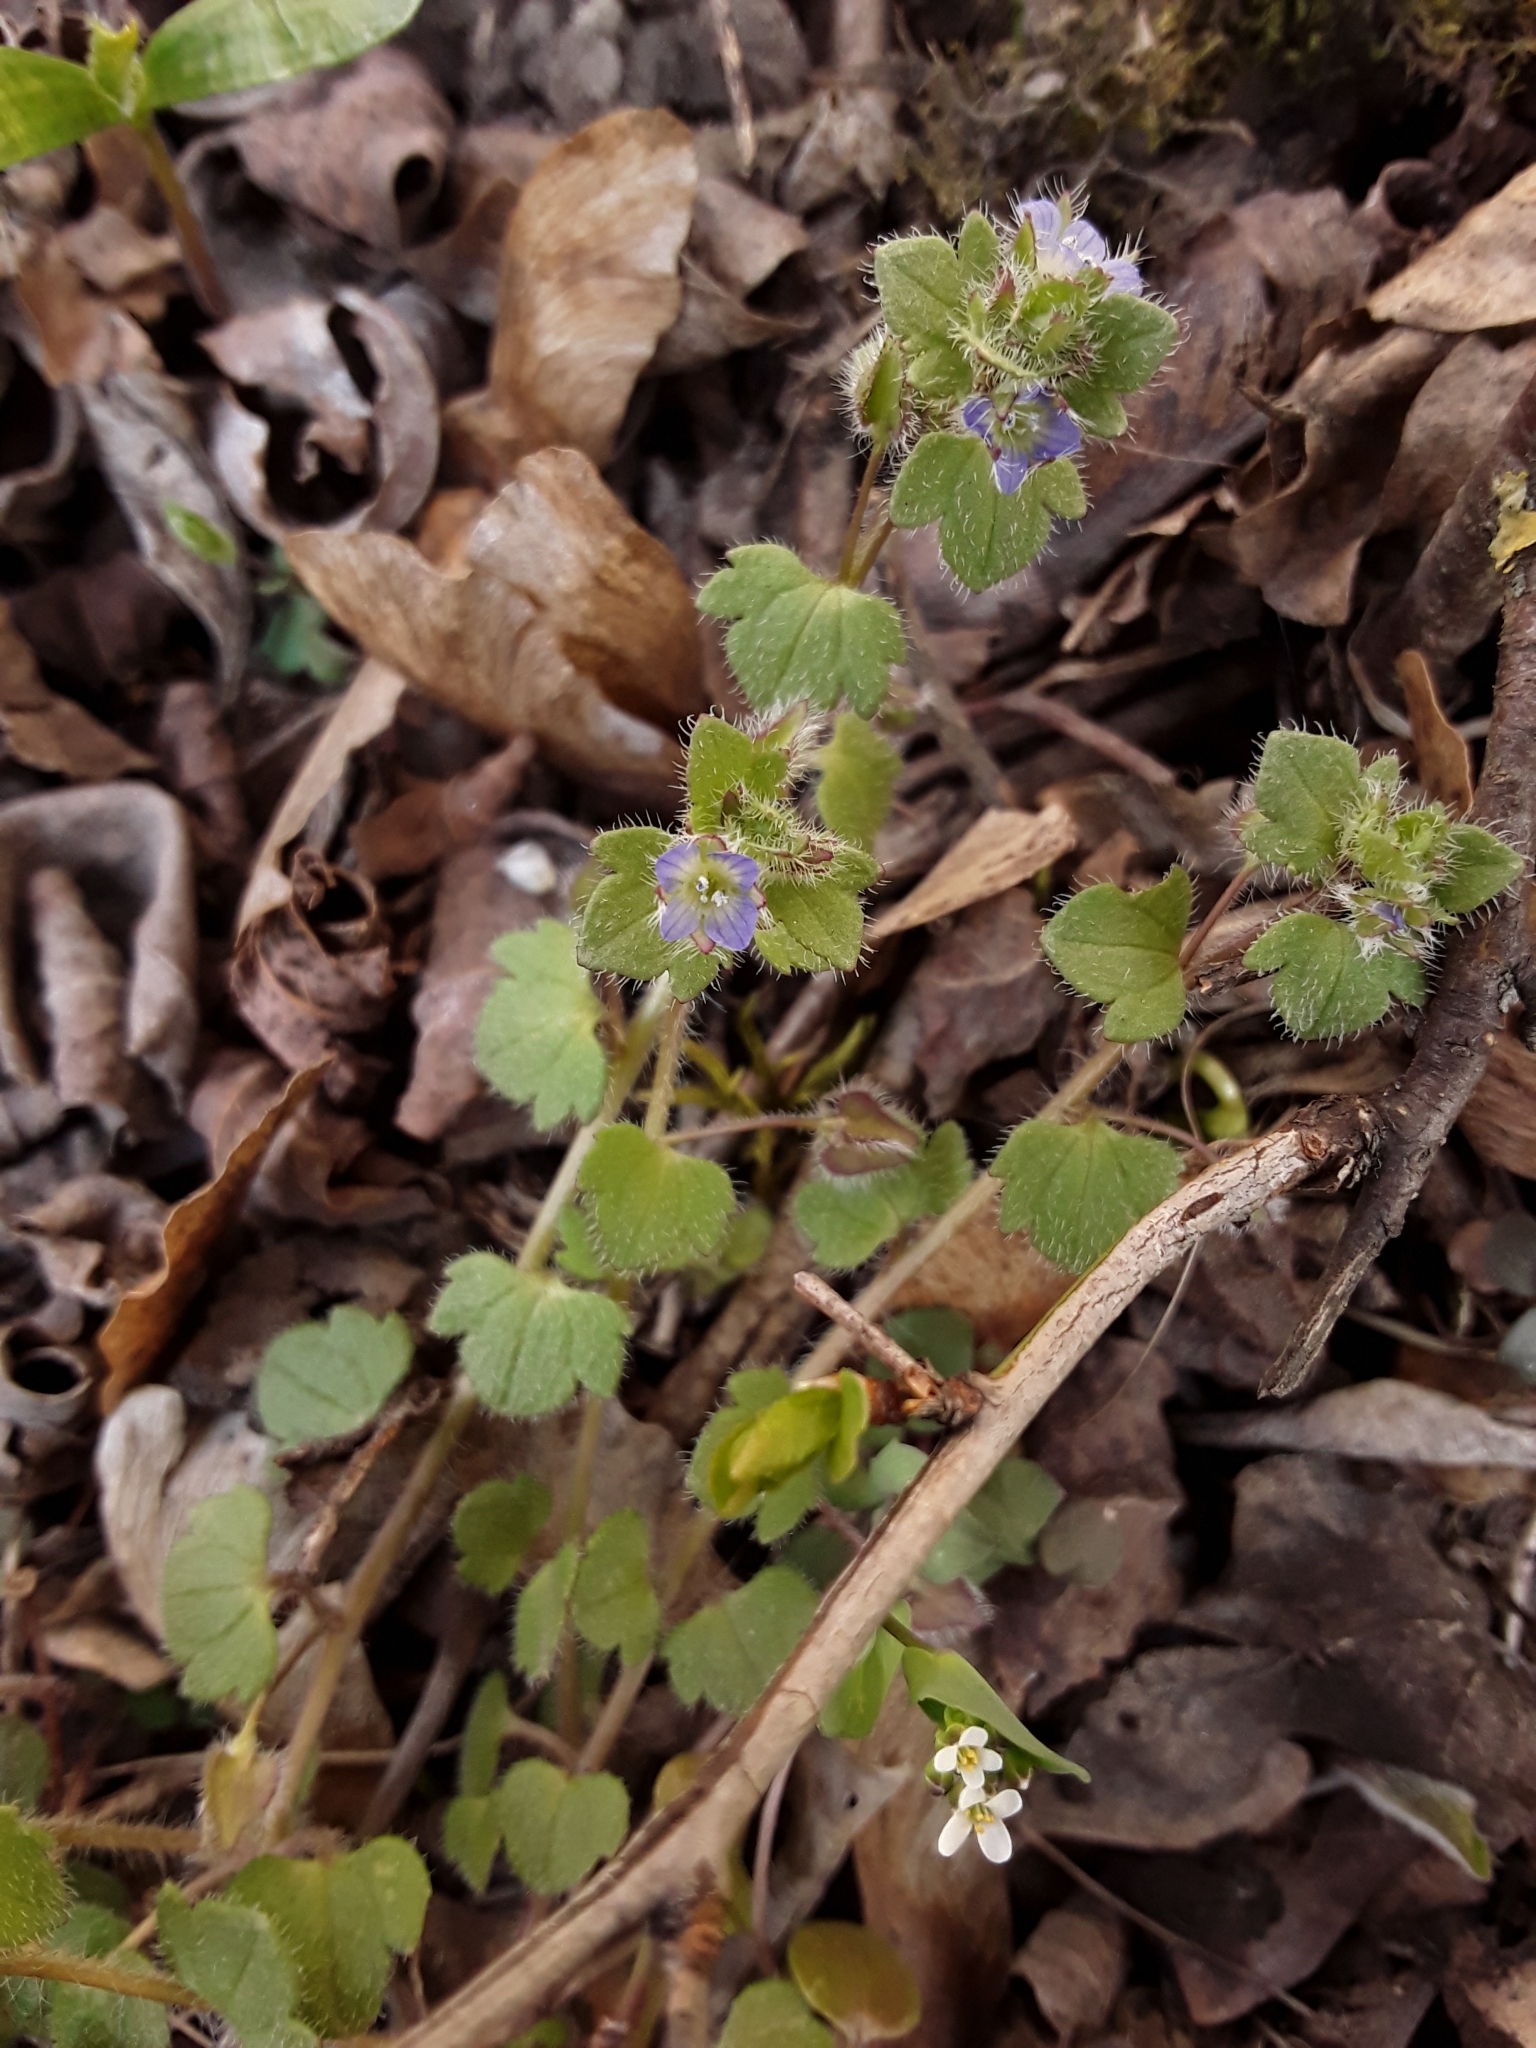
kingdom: Plantae
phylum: Tracheophyta
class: Magnoliopsida
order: Lamiales
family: Plantaginaceae
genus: Veronica
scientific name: Veronica hederifolia
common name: Ivy-leaved speedwell
